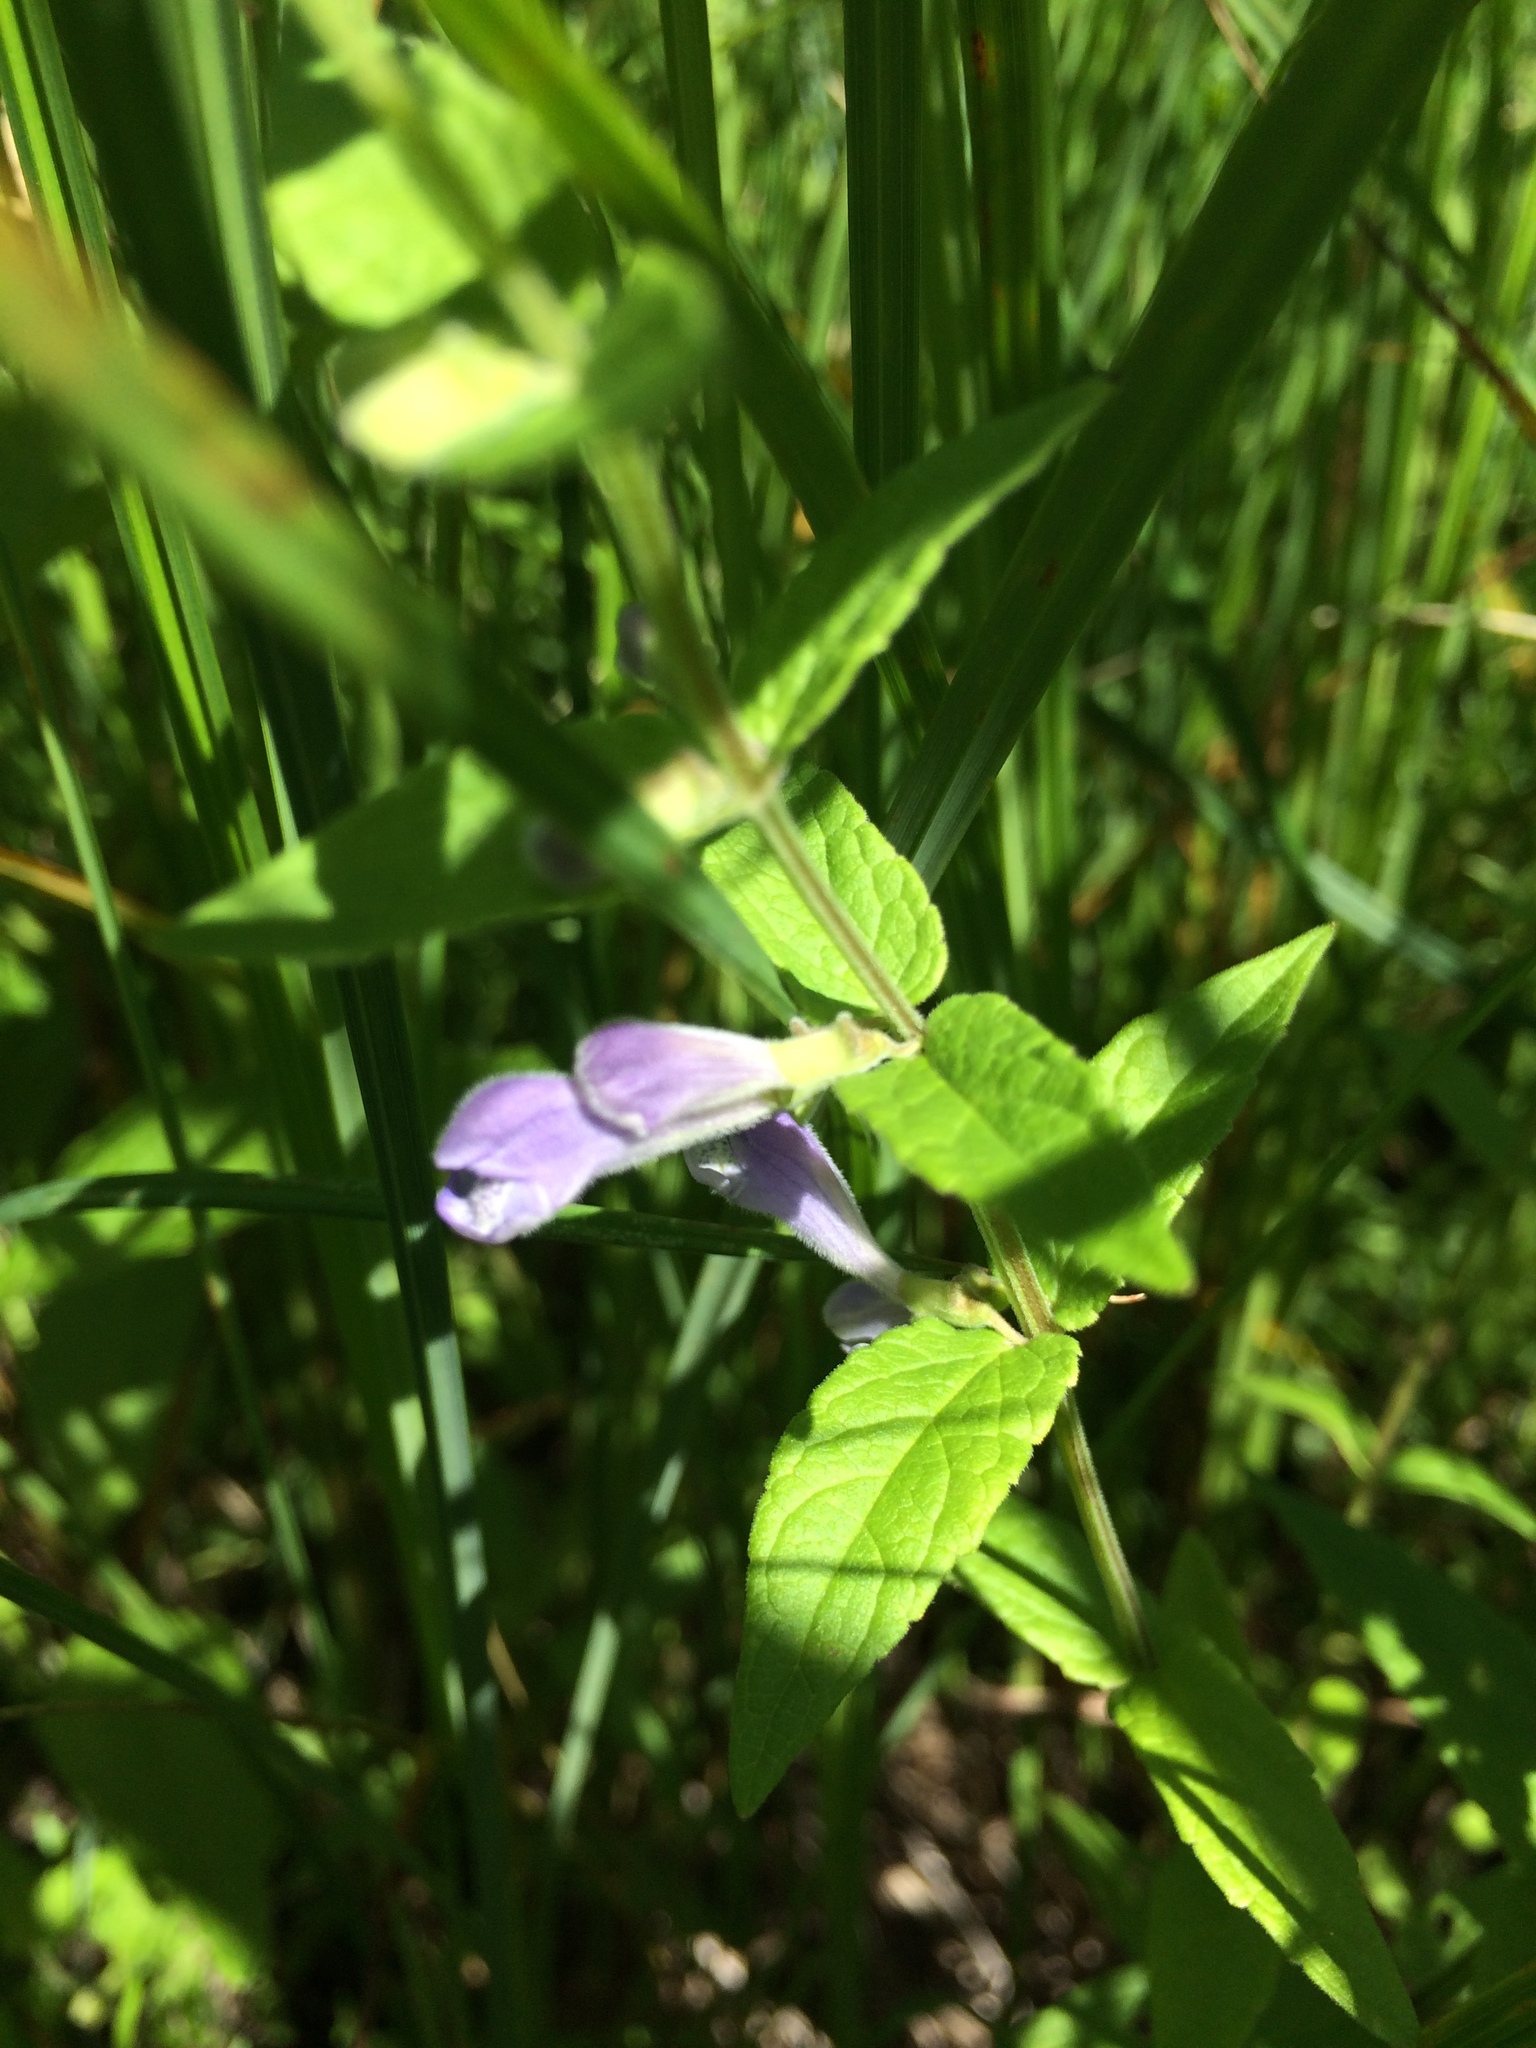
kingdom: Plantae
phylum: Tracheophyta
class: Magnoliopsida
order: Lamiales
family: Lamiaceae
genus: Scutellaria
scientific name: Scutellaria galericulata
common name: Skullcap
